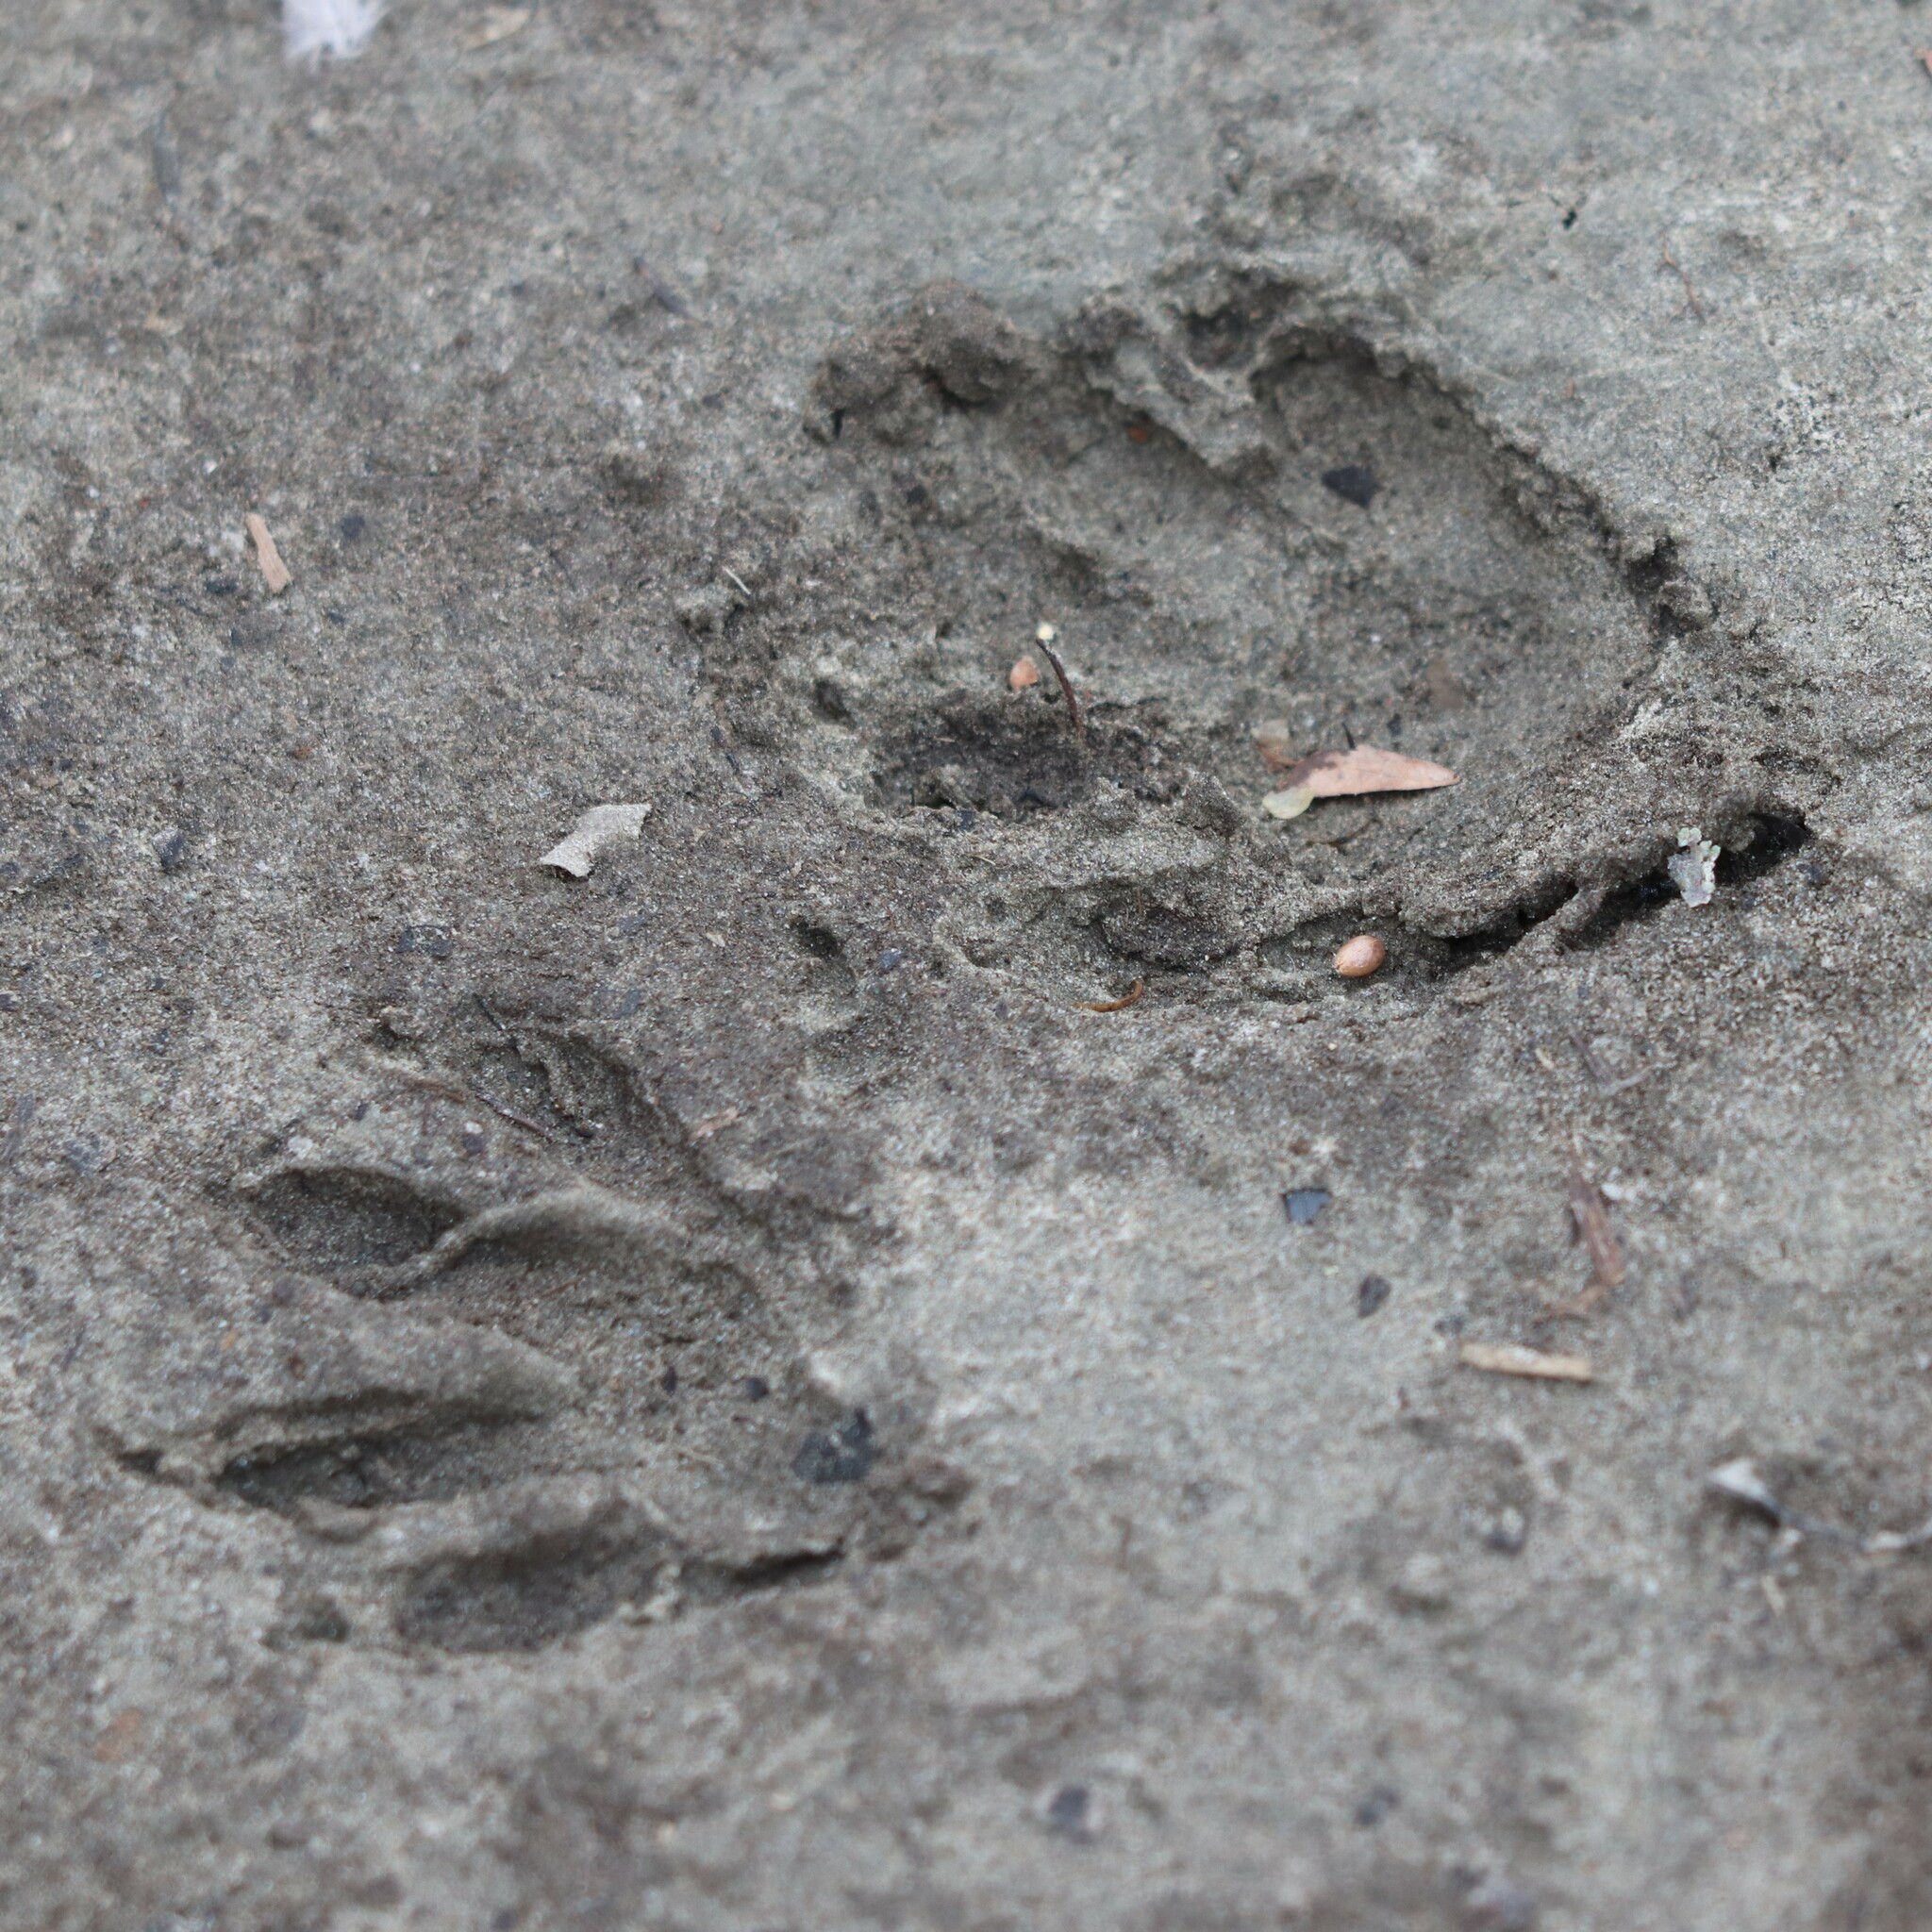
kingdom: Animalia
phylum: Chordata
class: Mammalia
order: Carnivora
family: Procyonidae
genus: Procyon
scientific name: Procyon lotor
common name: Raccoon
